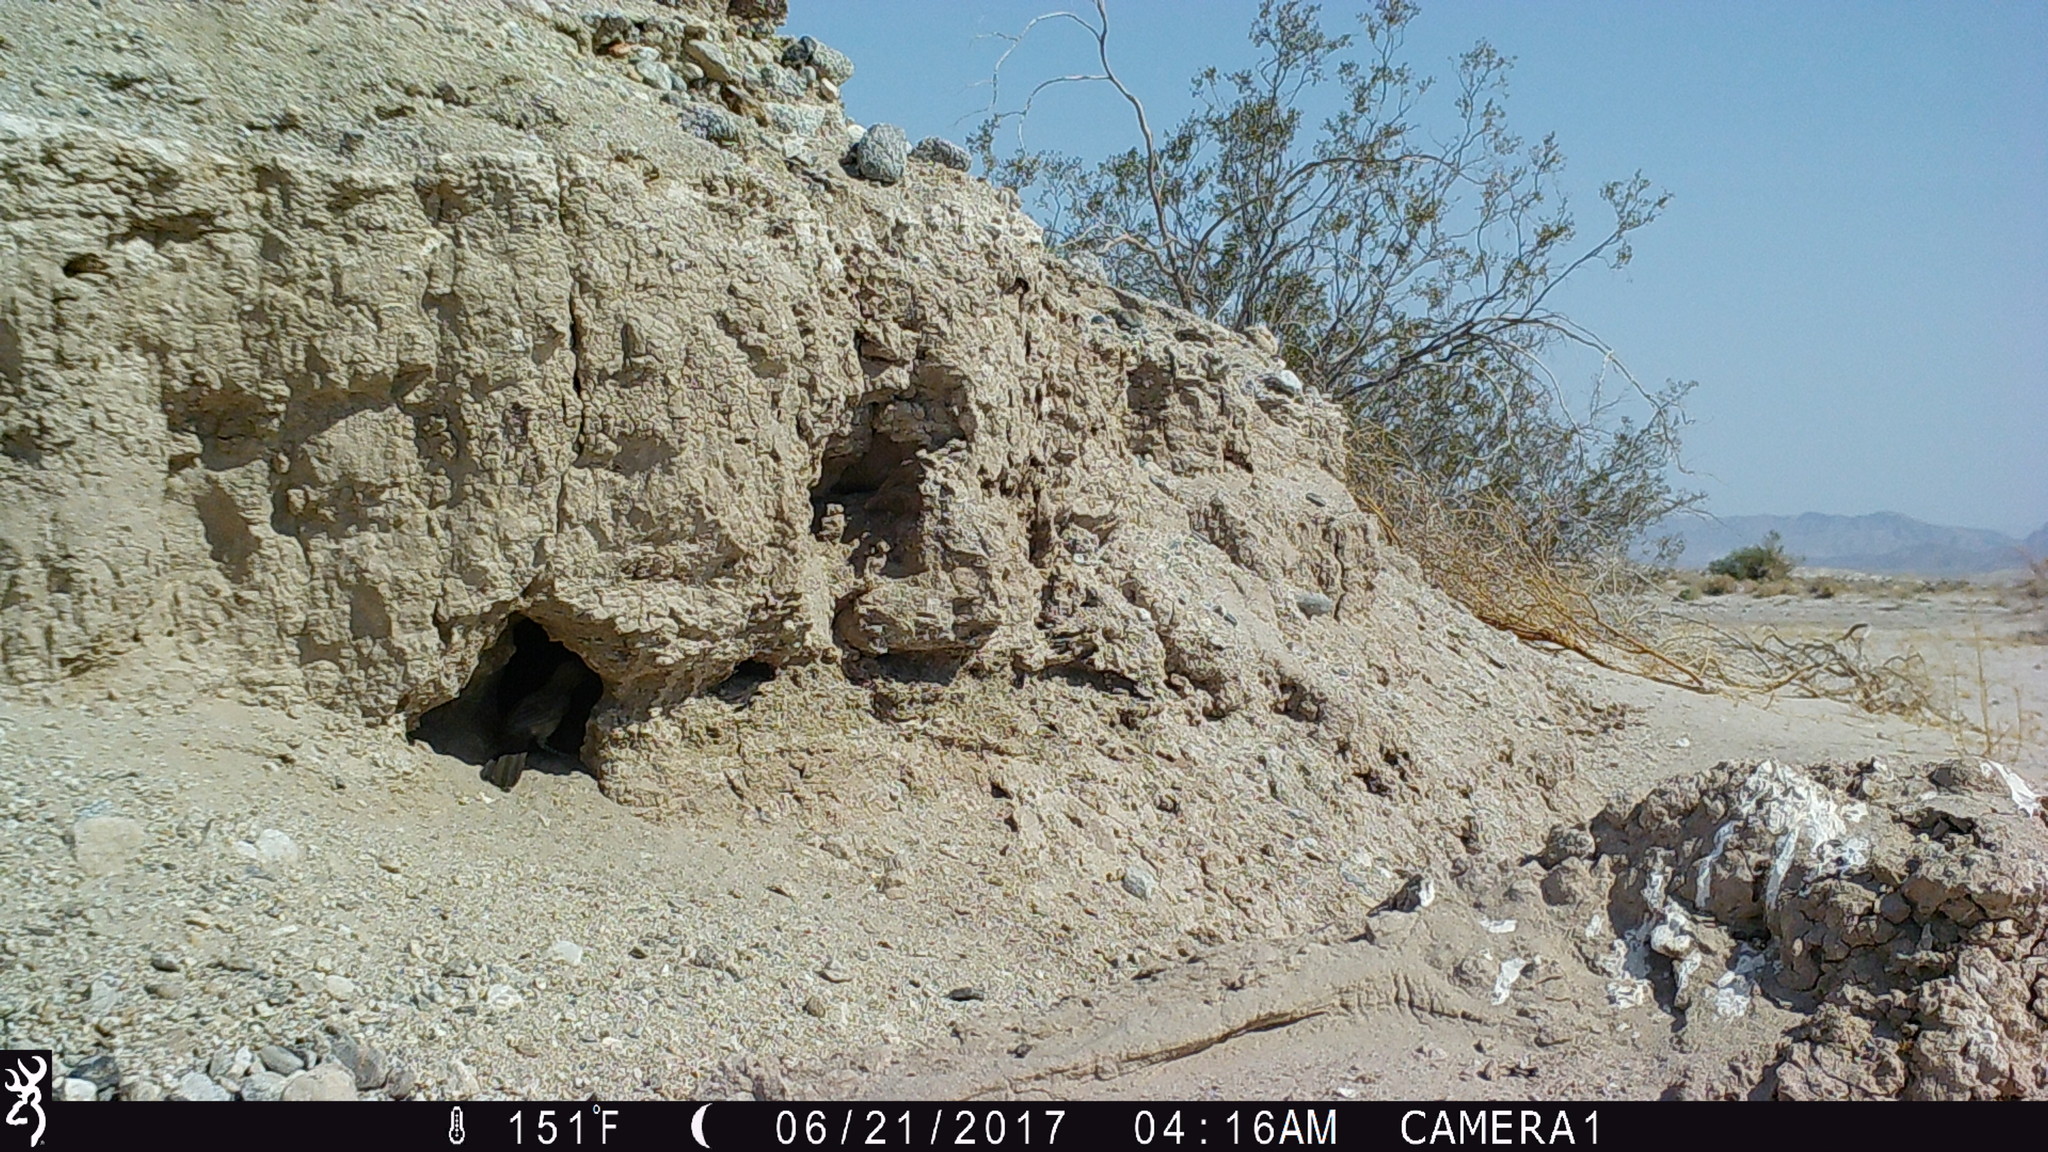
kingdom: Animalia
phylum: Chordata
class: Aves
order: Passeriformes
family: Mimidae
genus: Toxostoma
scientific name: Toxostoma lecontei
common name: Le conte's thrasher
